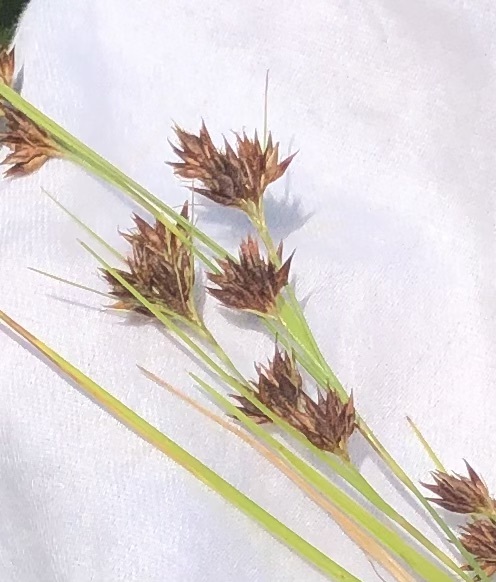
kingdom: Plantae
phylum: Tracheophyta
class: Liliopsida
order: Poales
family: Cyperaceae
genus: Rhynchospora
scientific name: Rhynchospora glomerata
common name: Cluster beak sedge
